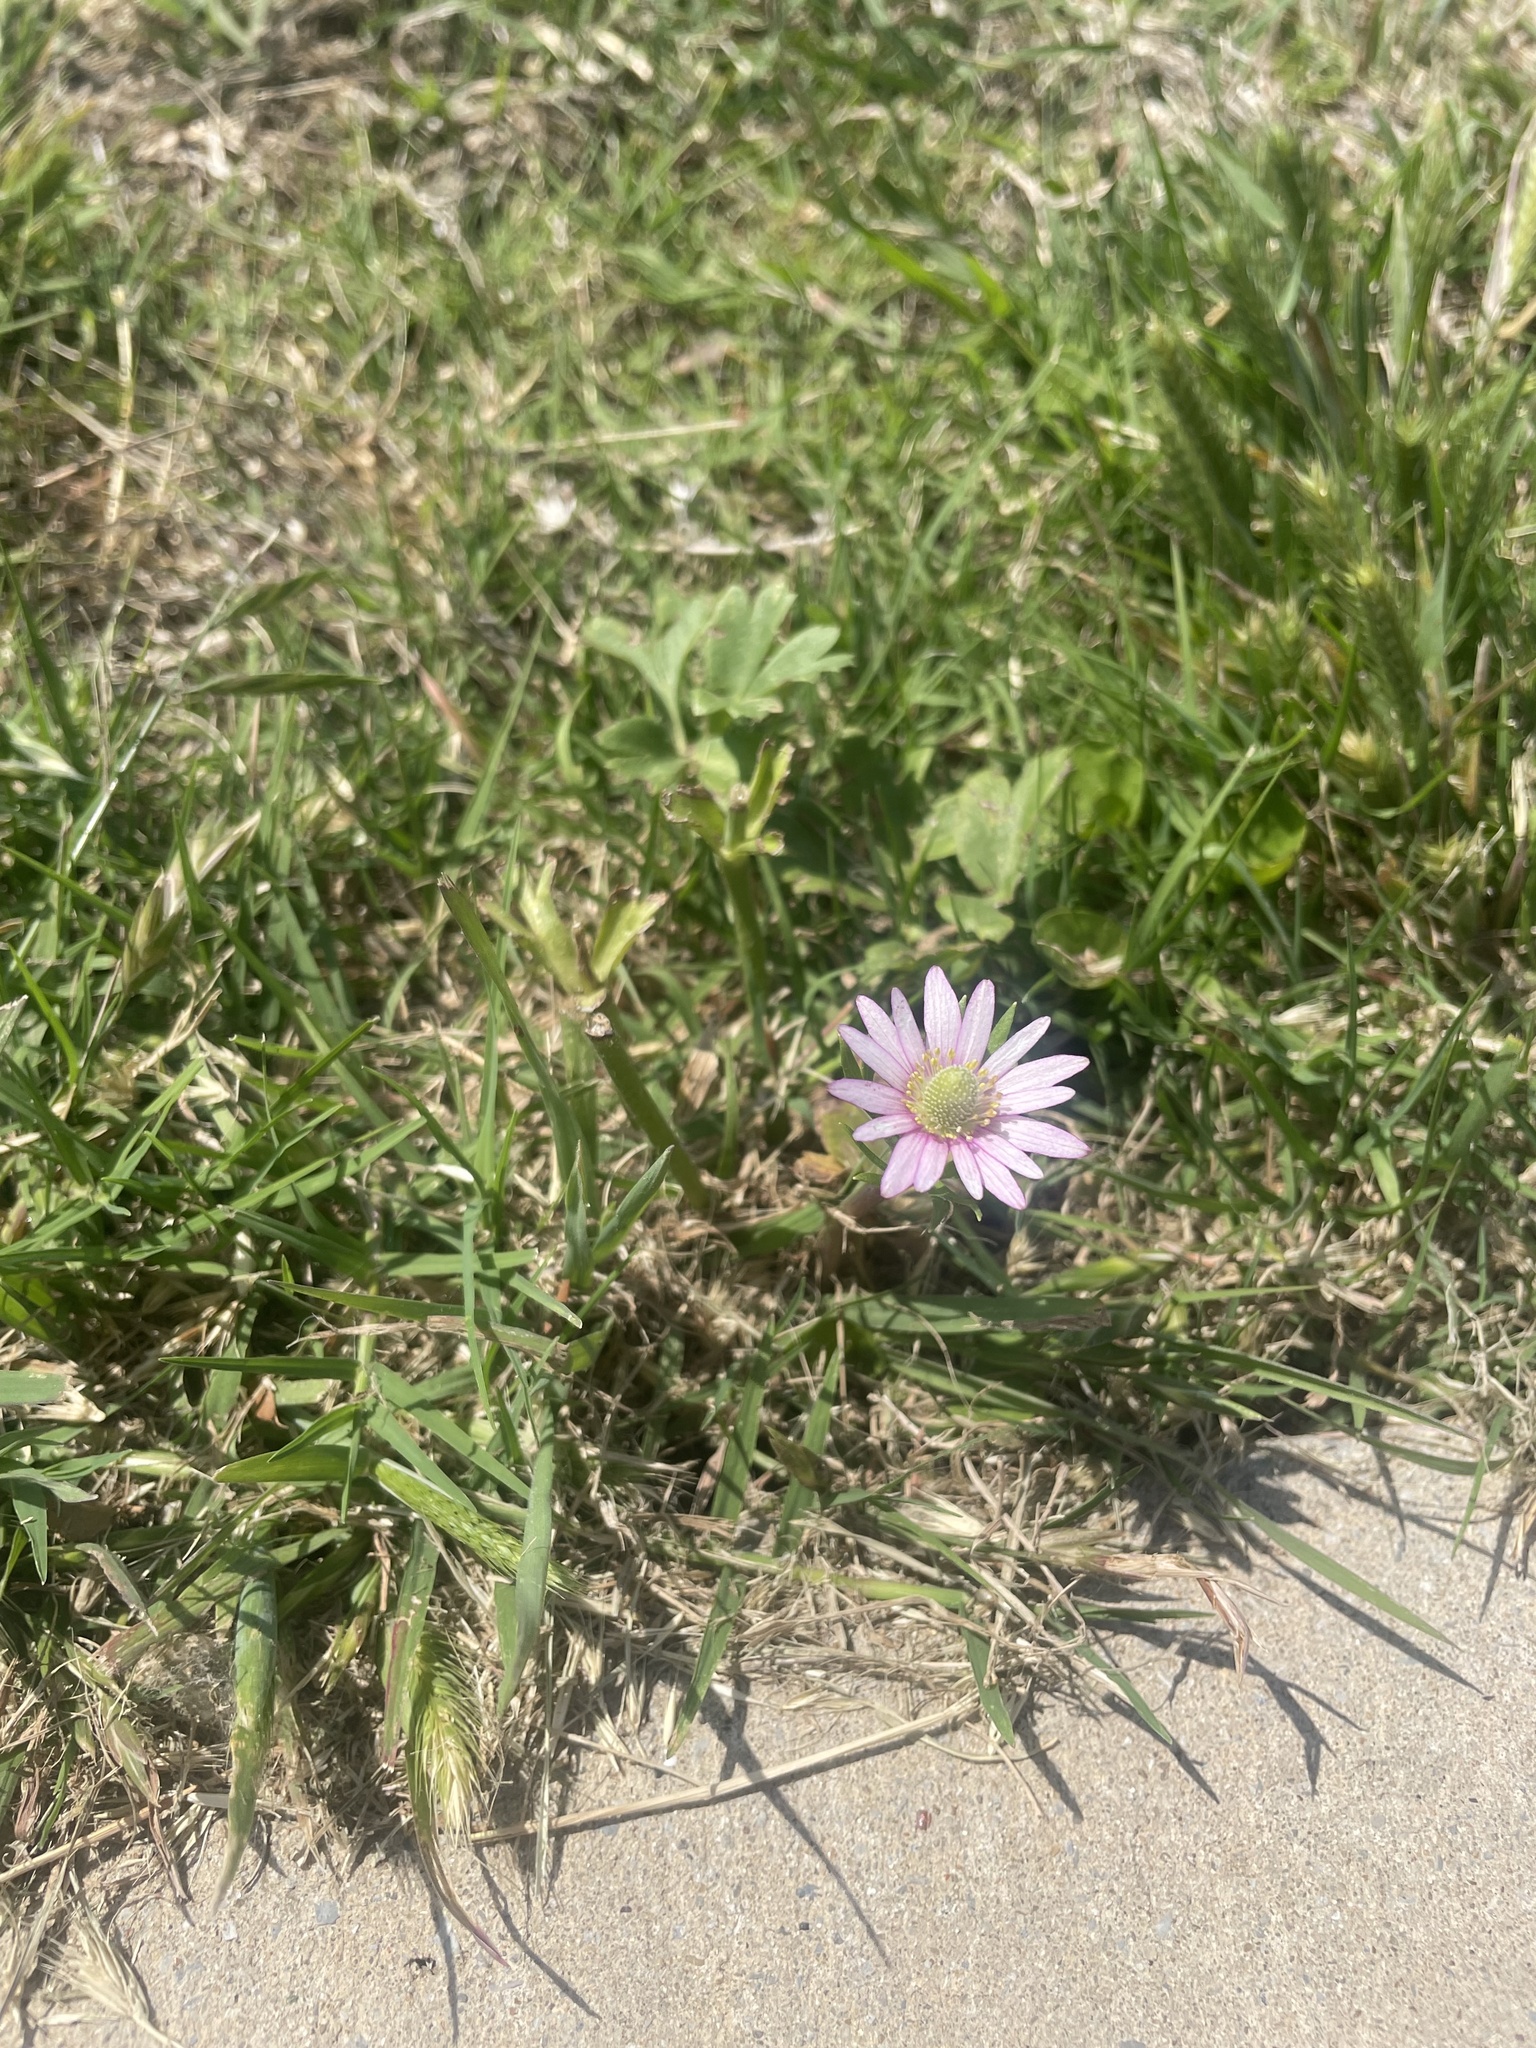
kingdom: Plantae
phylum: Tracheophyta
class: Magnoliopsida
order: Ranunculales
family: Ranunculaceae
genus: Anemone
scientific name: Anemone berlandieri
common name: Ten-petal anemone
